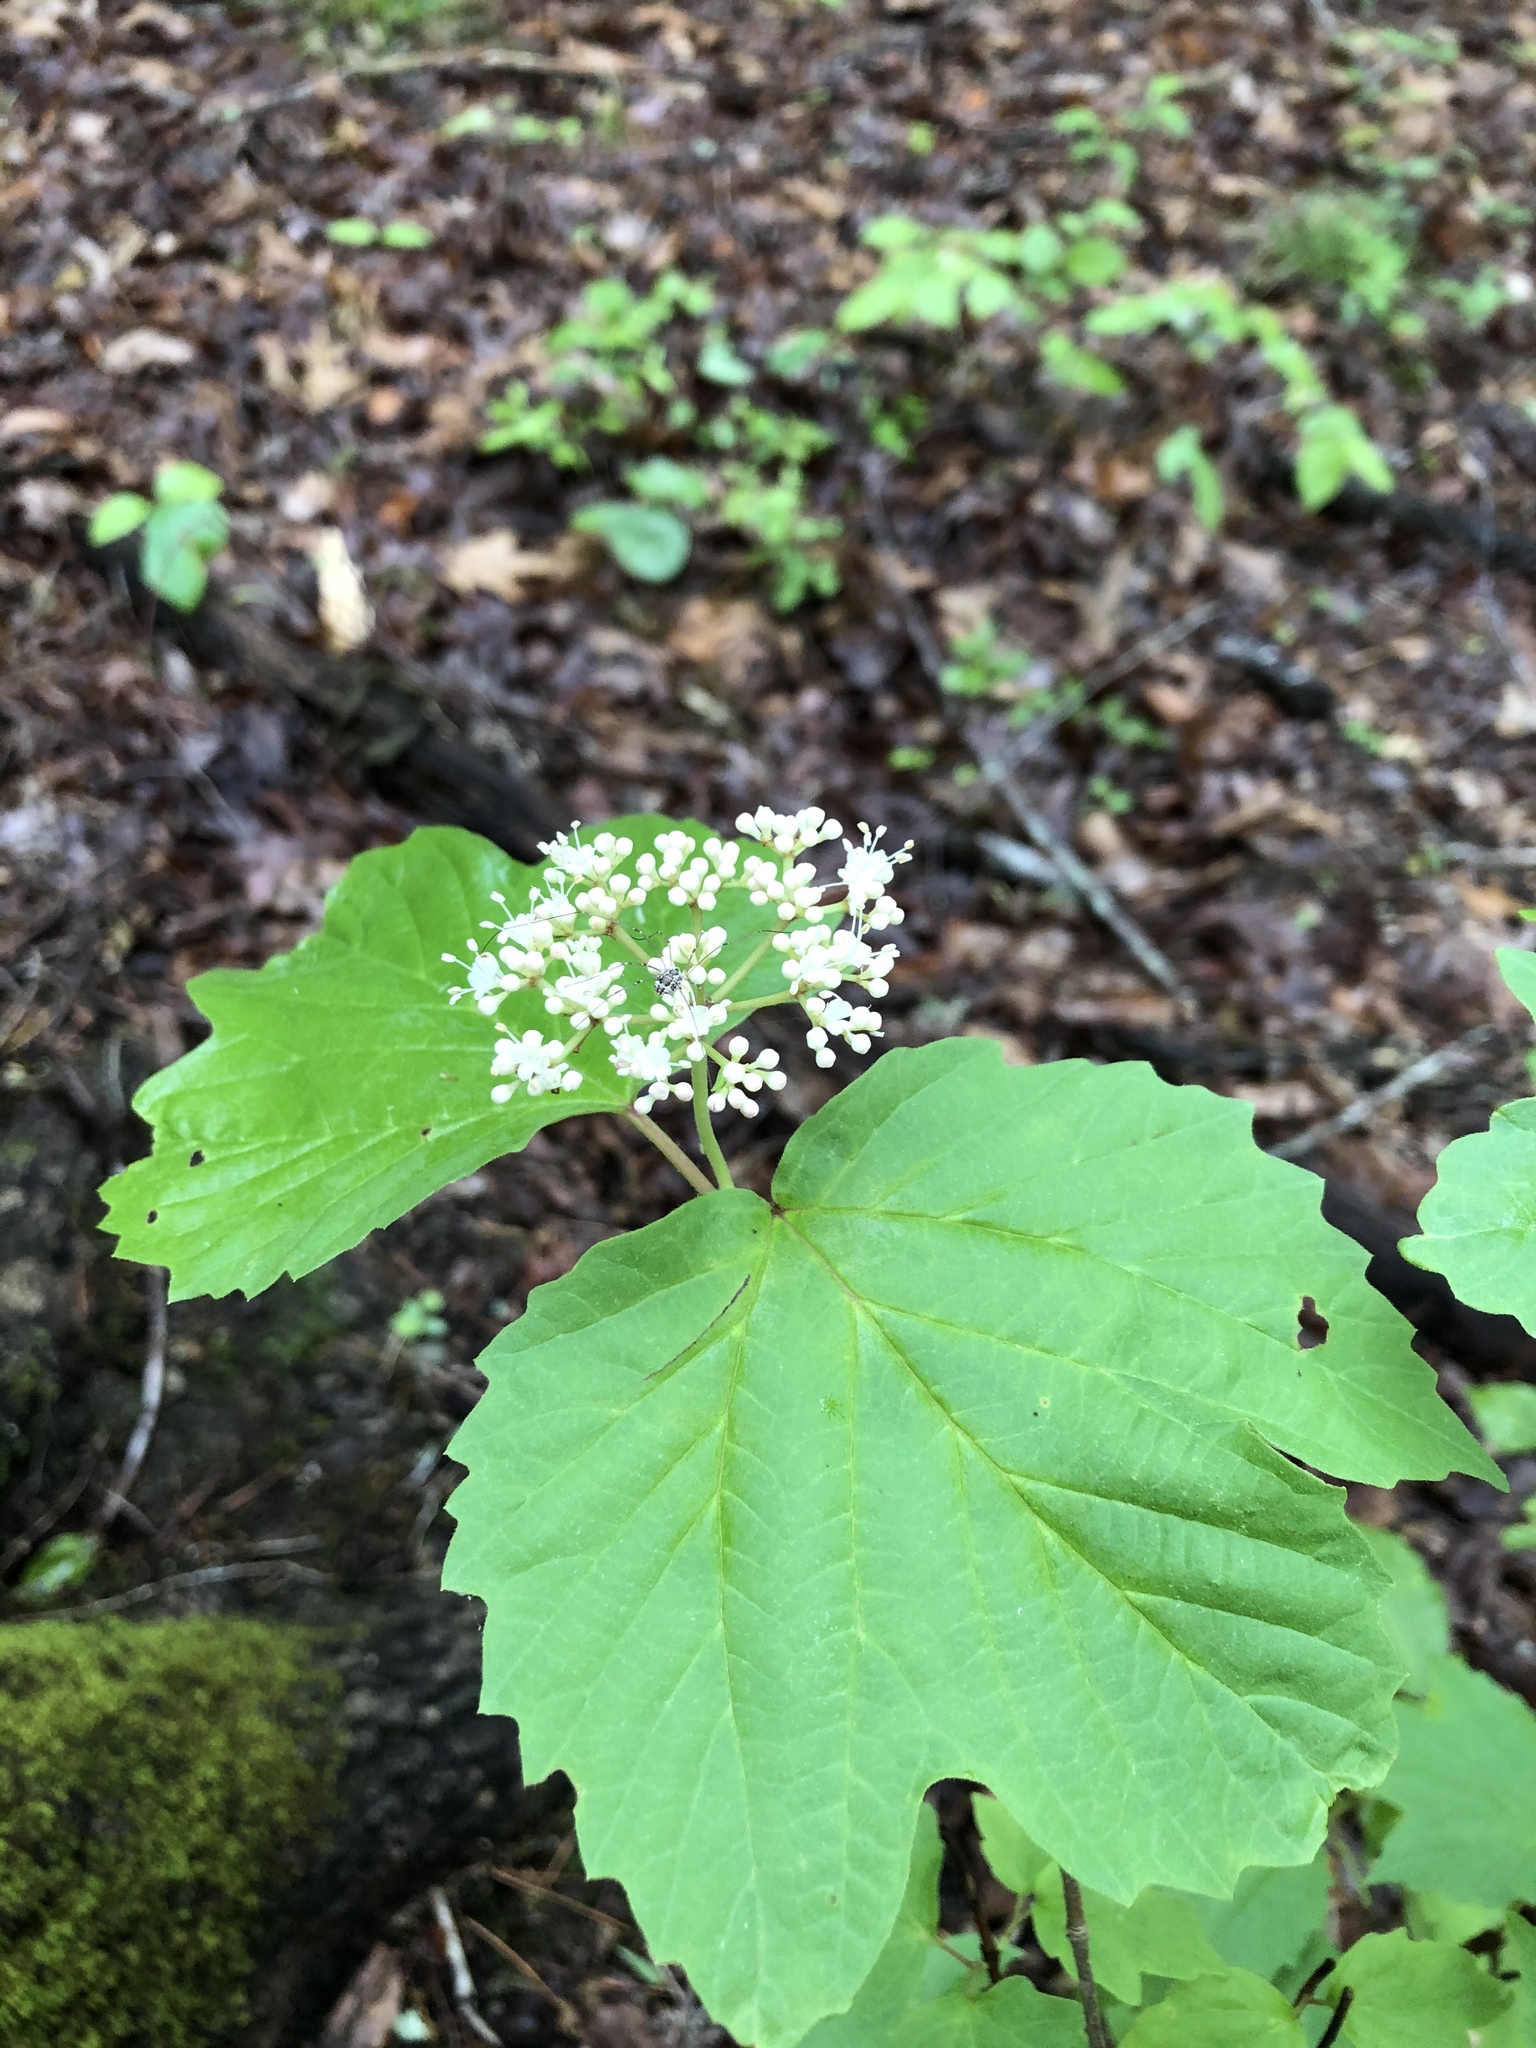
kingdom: Plantae
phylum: Tracheophyta
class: Magnoliopsida
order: Dipsacales
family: Viburnaceae
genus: Viburnum
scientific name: Viburnum acerifolium
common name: Dockmackie
